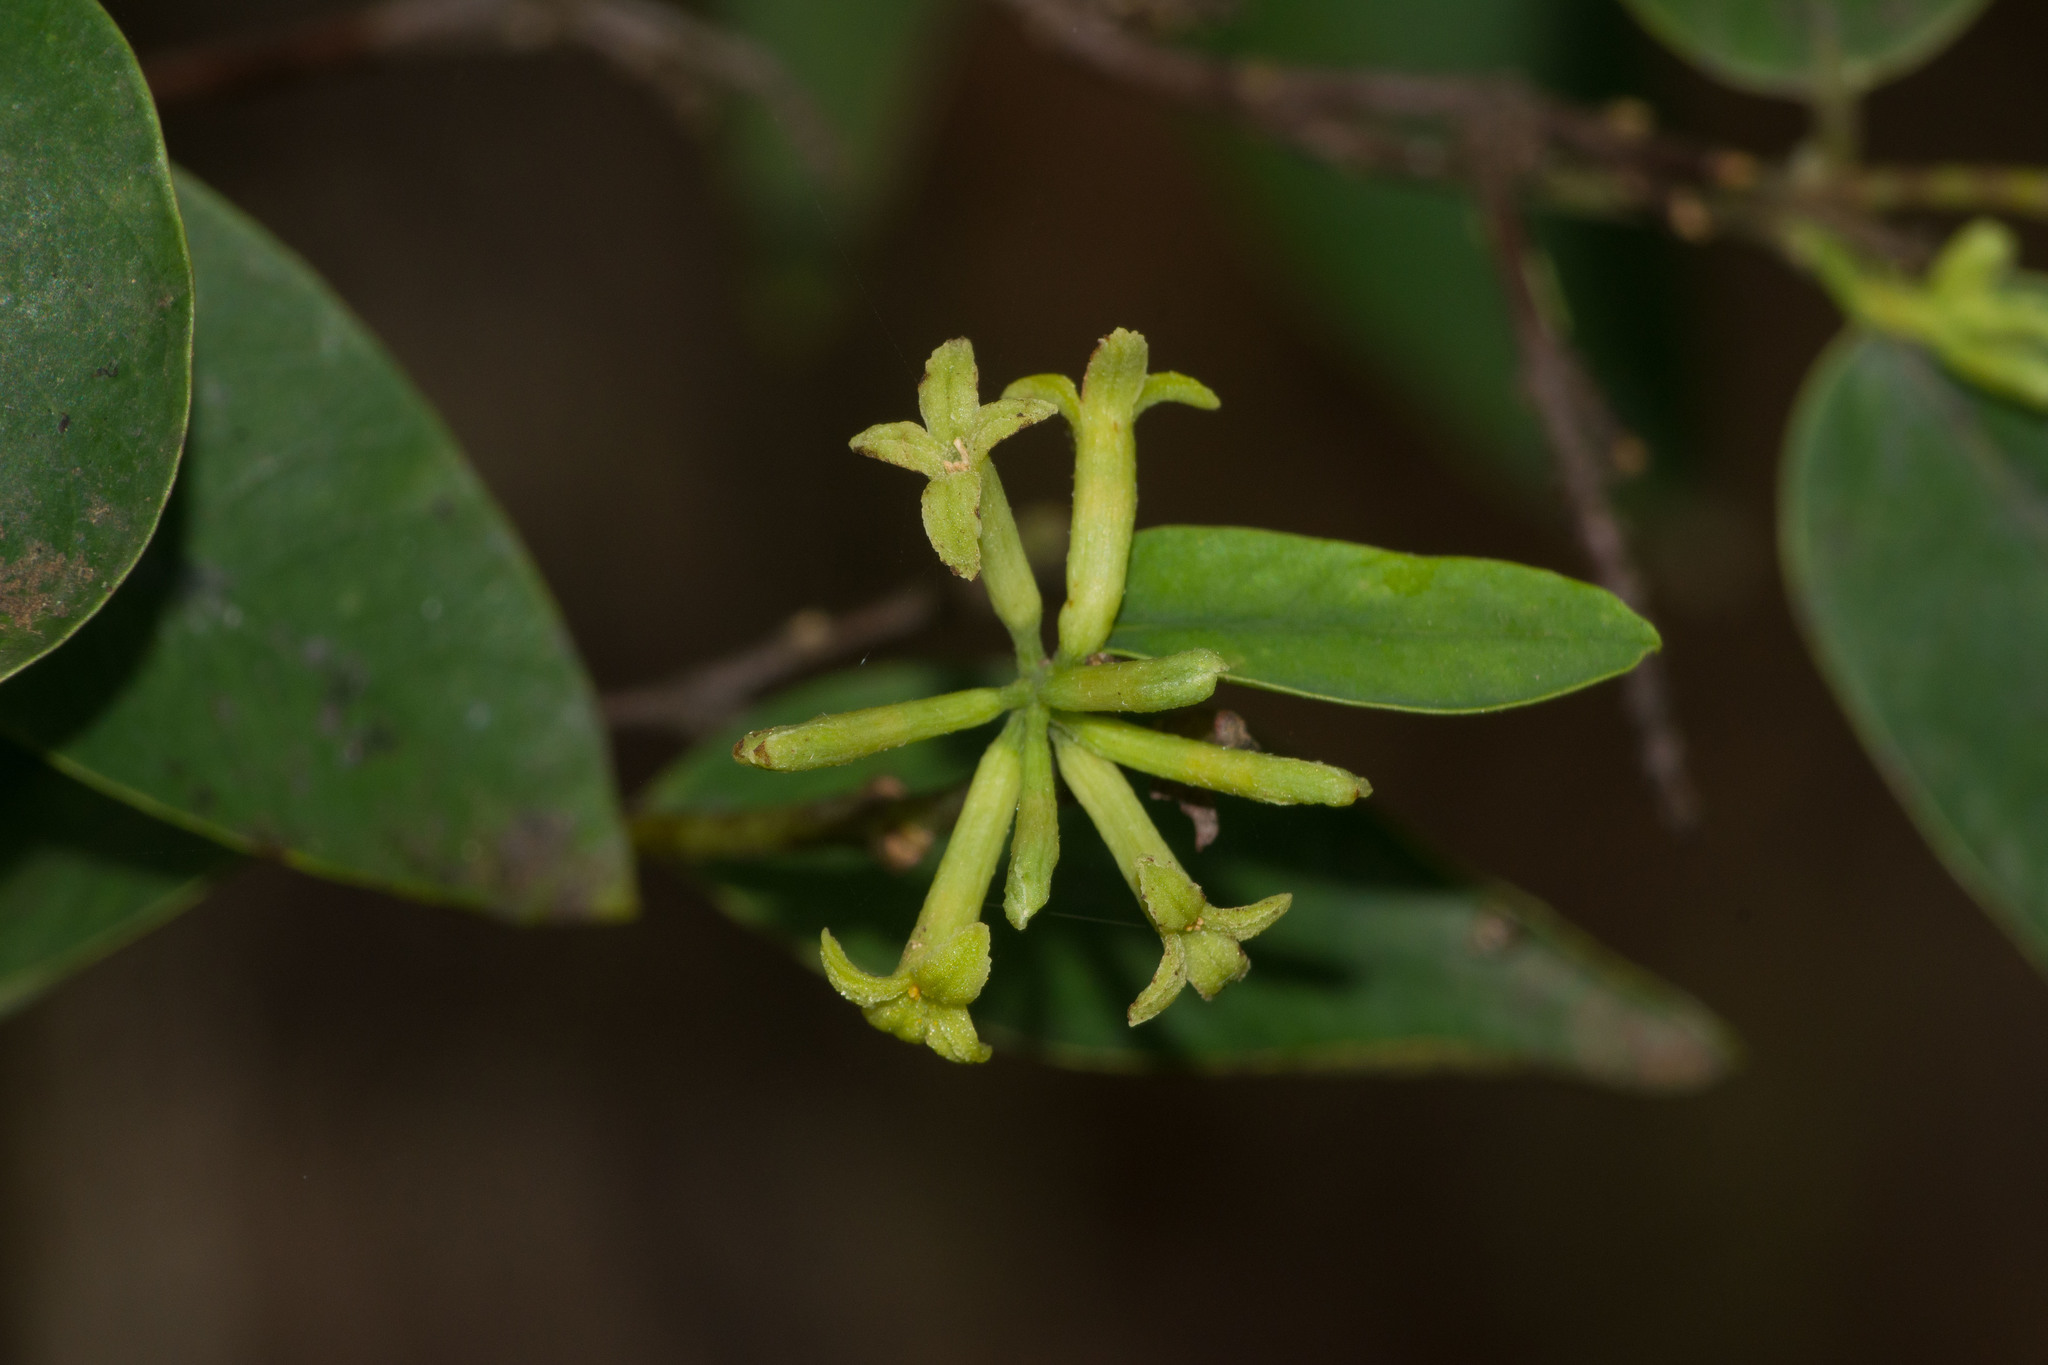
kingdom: Plantae
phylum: Tracheophyta
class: Magnoliopsida
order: Malvales
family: Thymelaeaceae
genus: Wikstroemia
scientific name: Wikstroemia oahuensis
